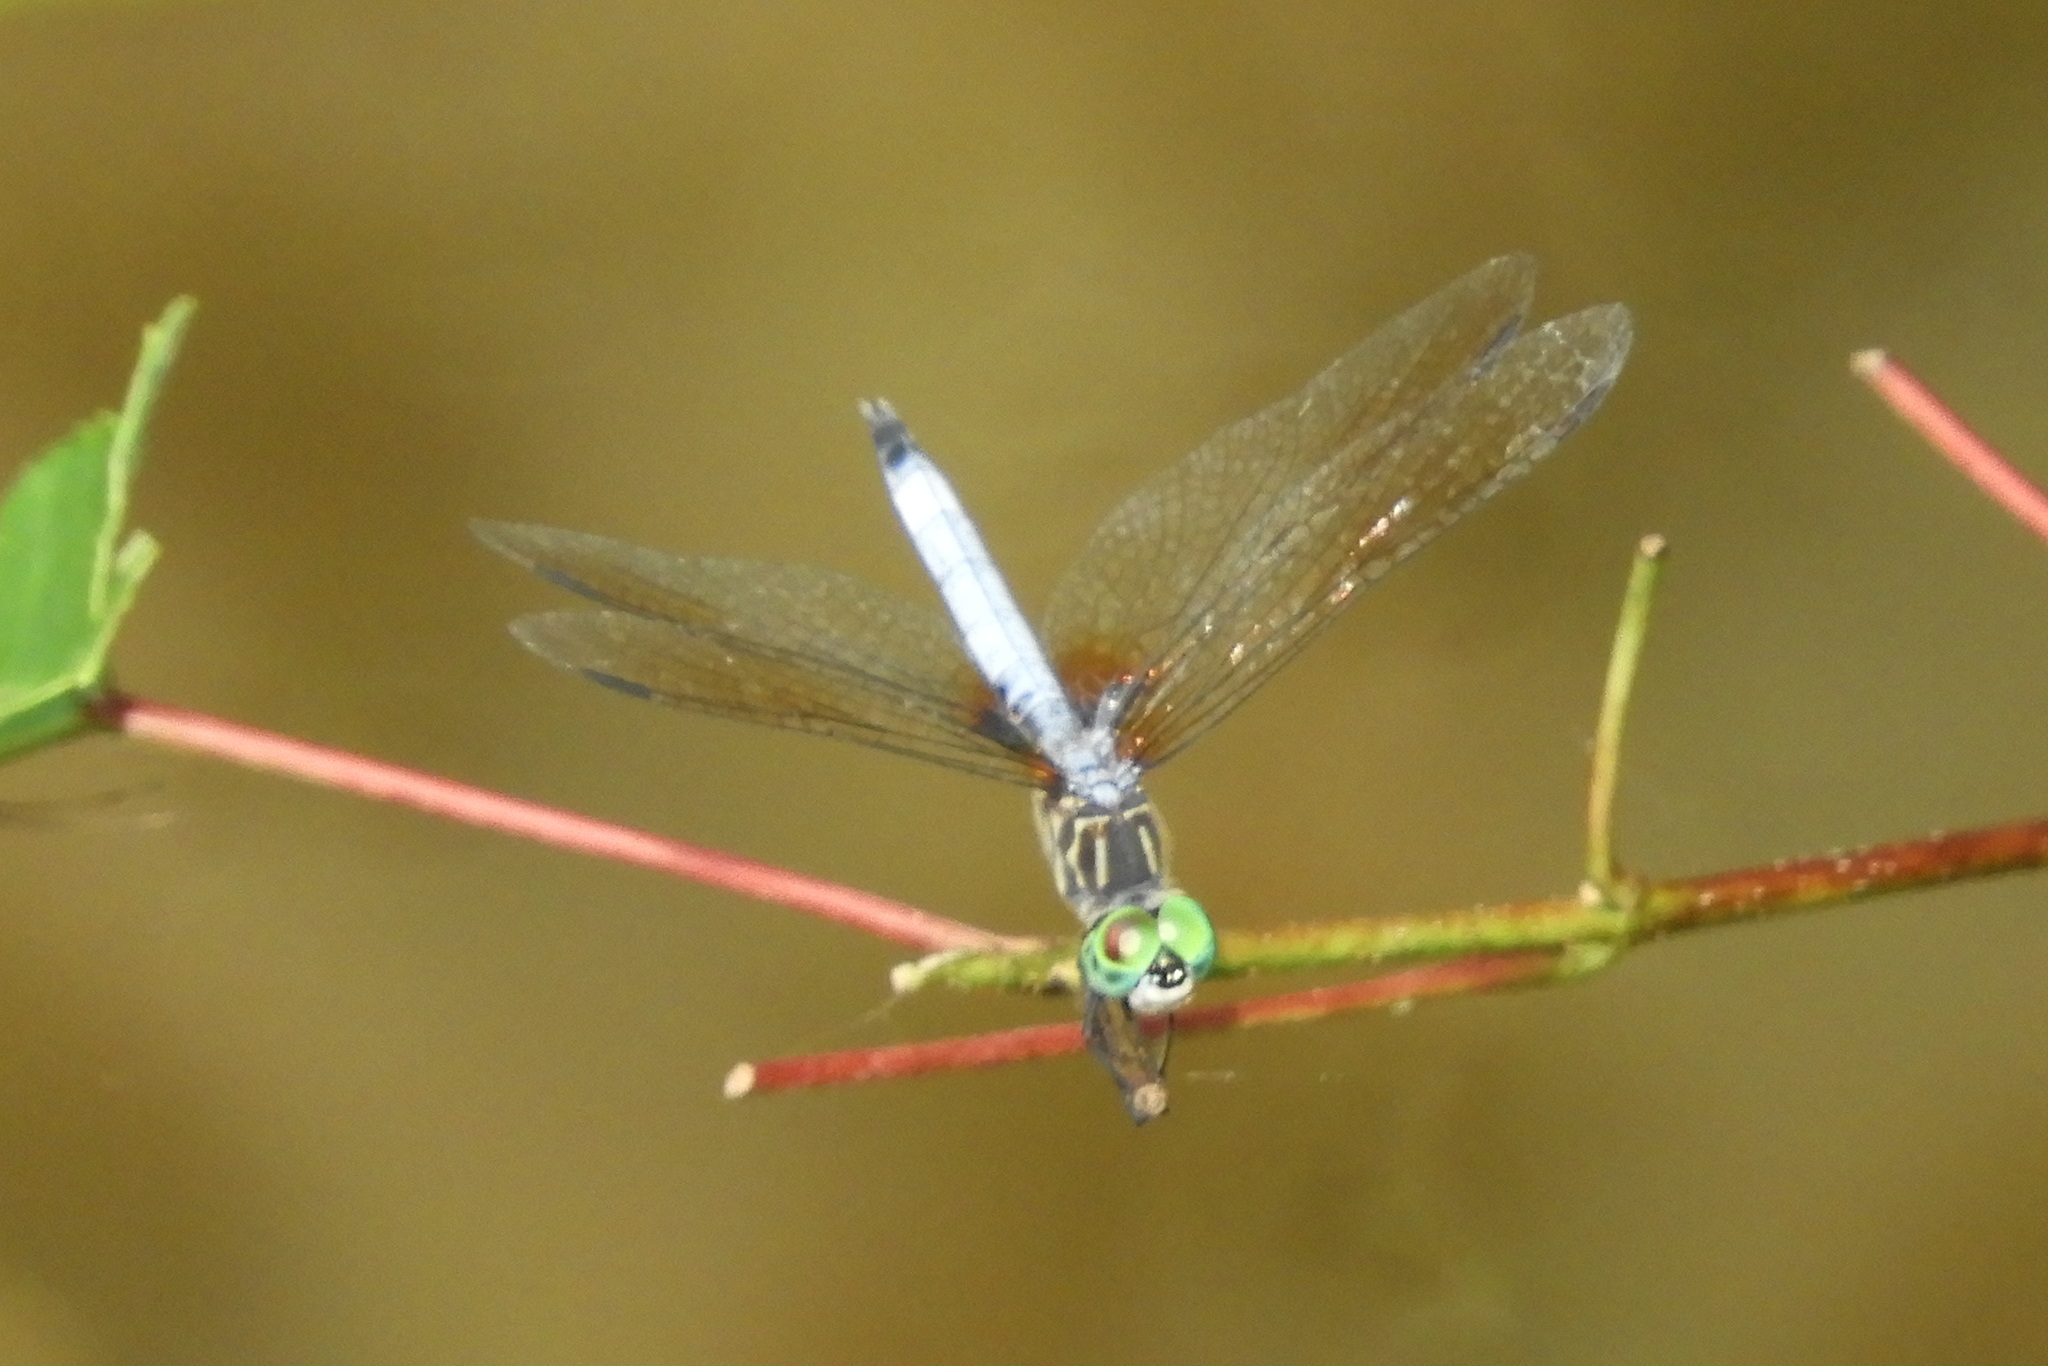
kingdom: Animalia
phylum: Arthropoda
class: Insecta
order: Odonata
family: Libellulidae
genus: Pachydiplax
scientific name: Pachydiplax longipennis
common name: Blue dasher
